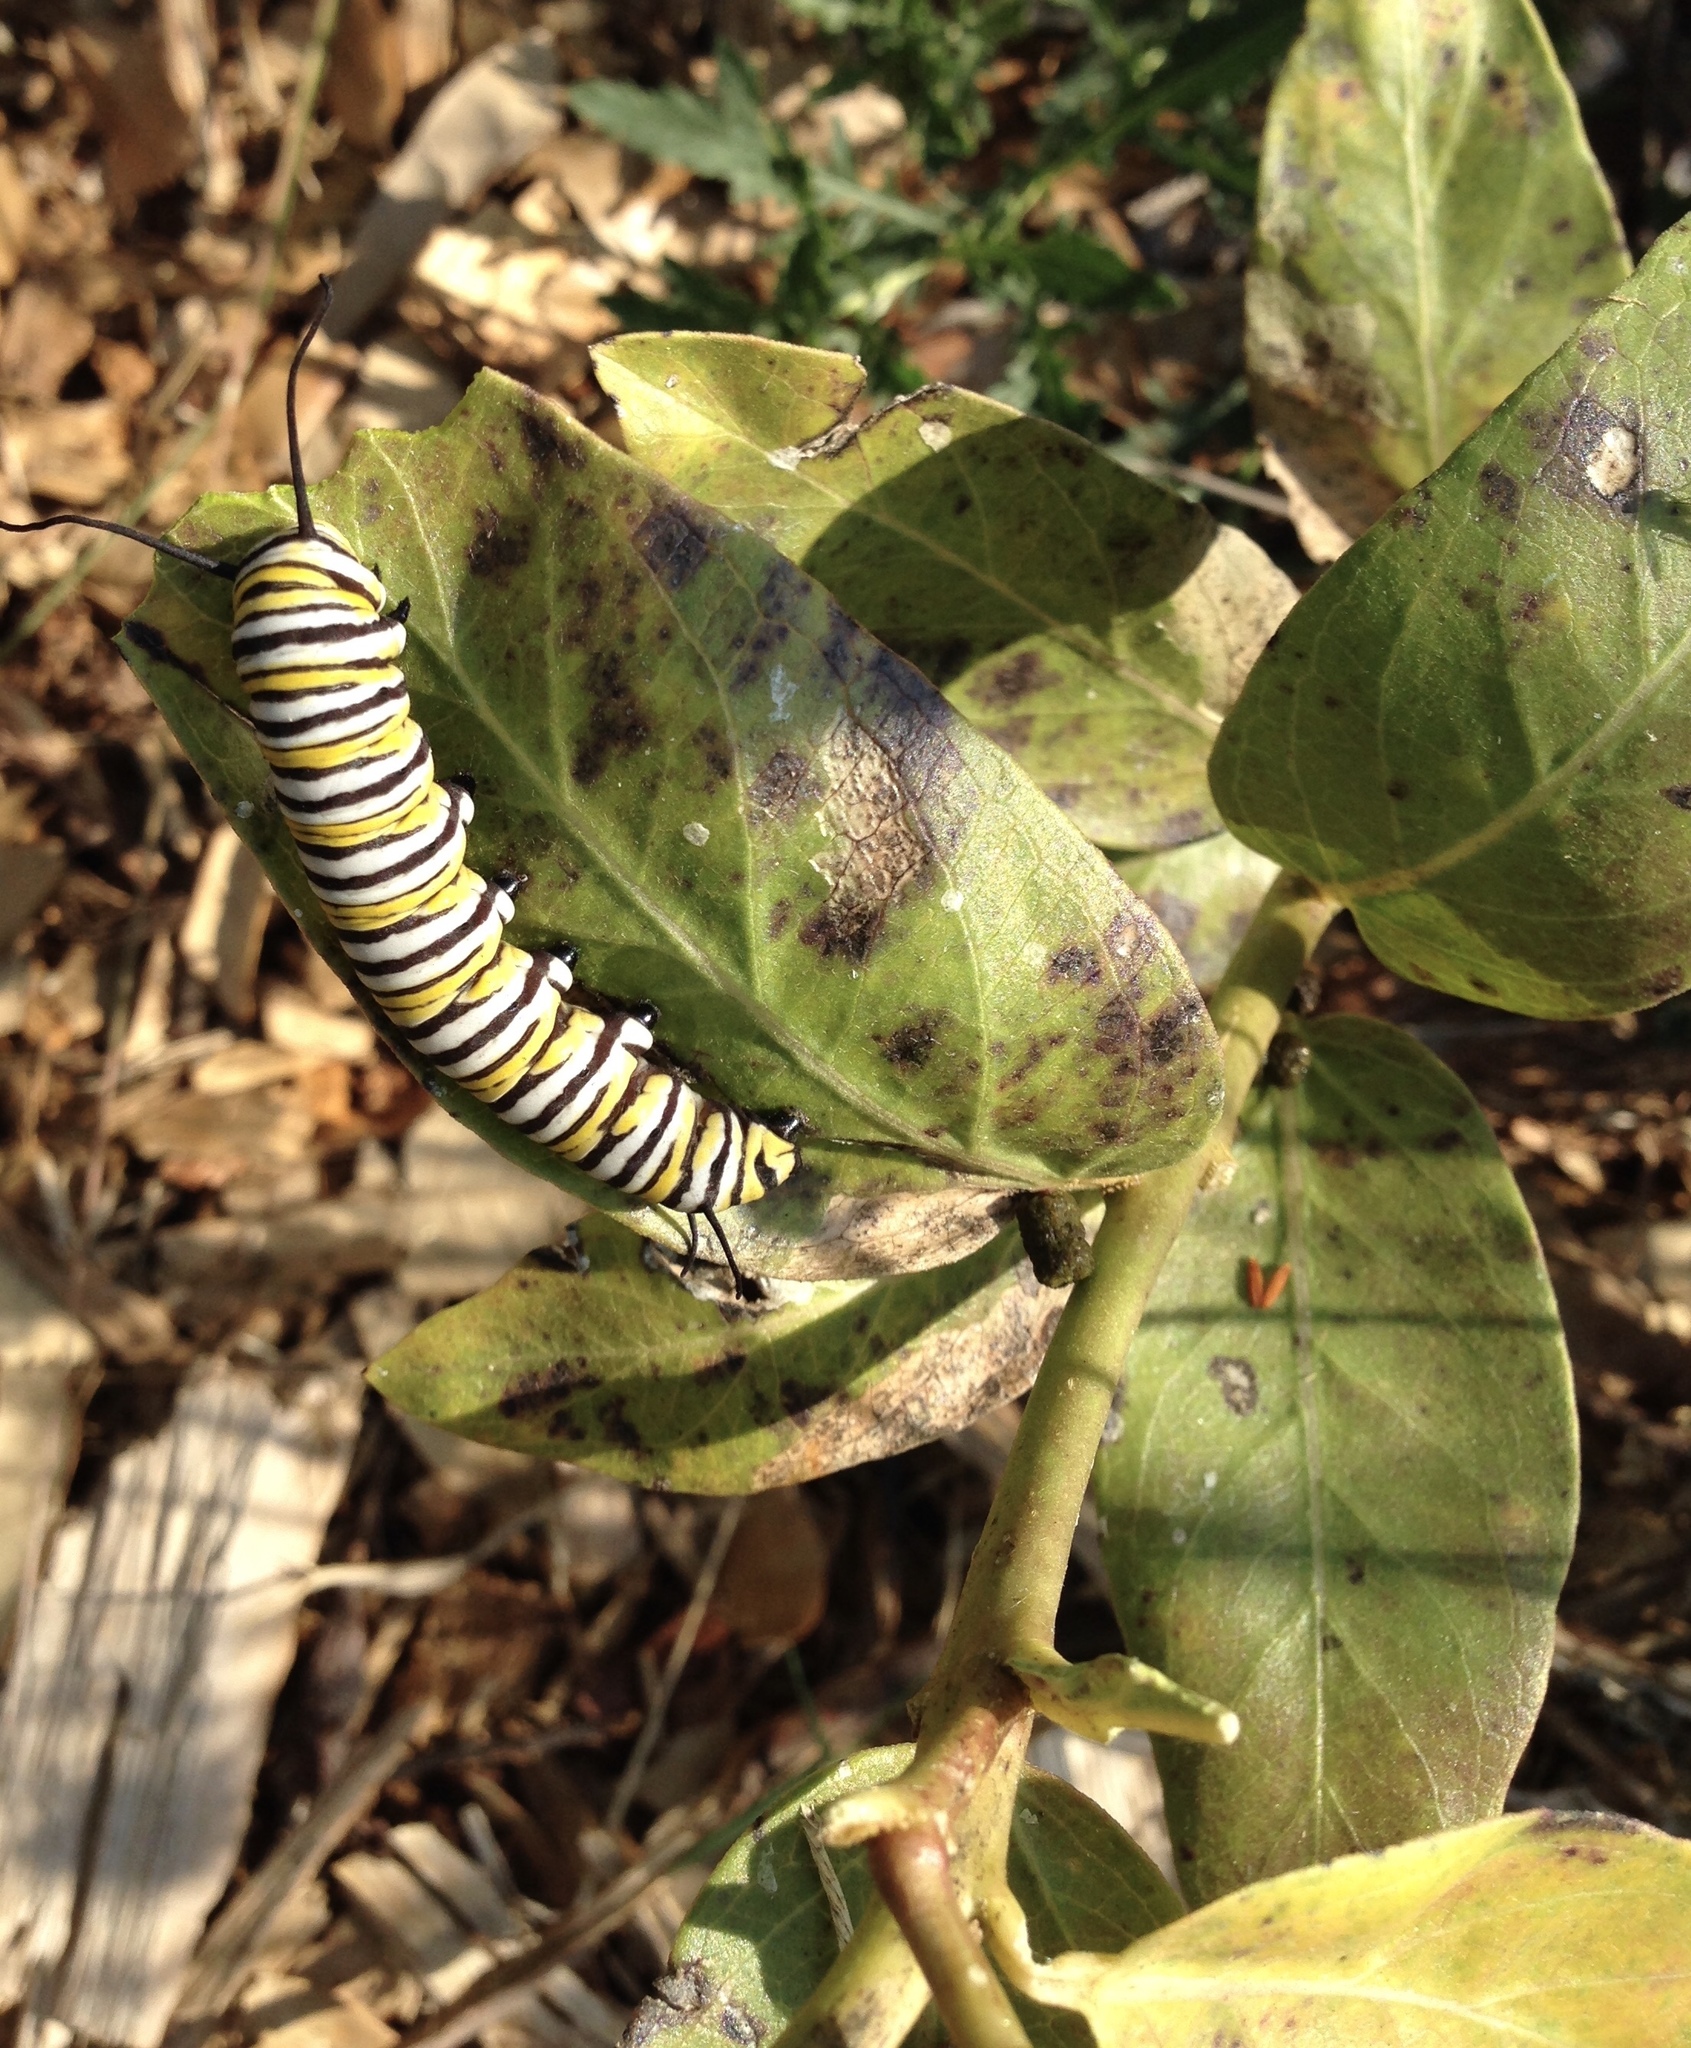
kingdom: Animalia
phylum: Arthropoda
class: Insecta
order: Lepidoptera
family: Nymphalidae
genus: Danaus
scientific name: Danaus plexippus
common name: Monarch
